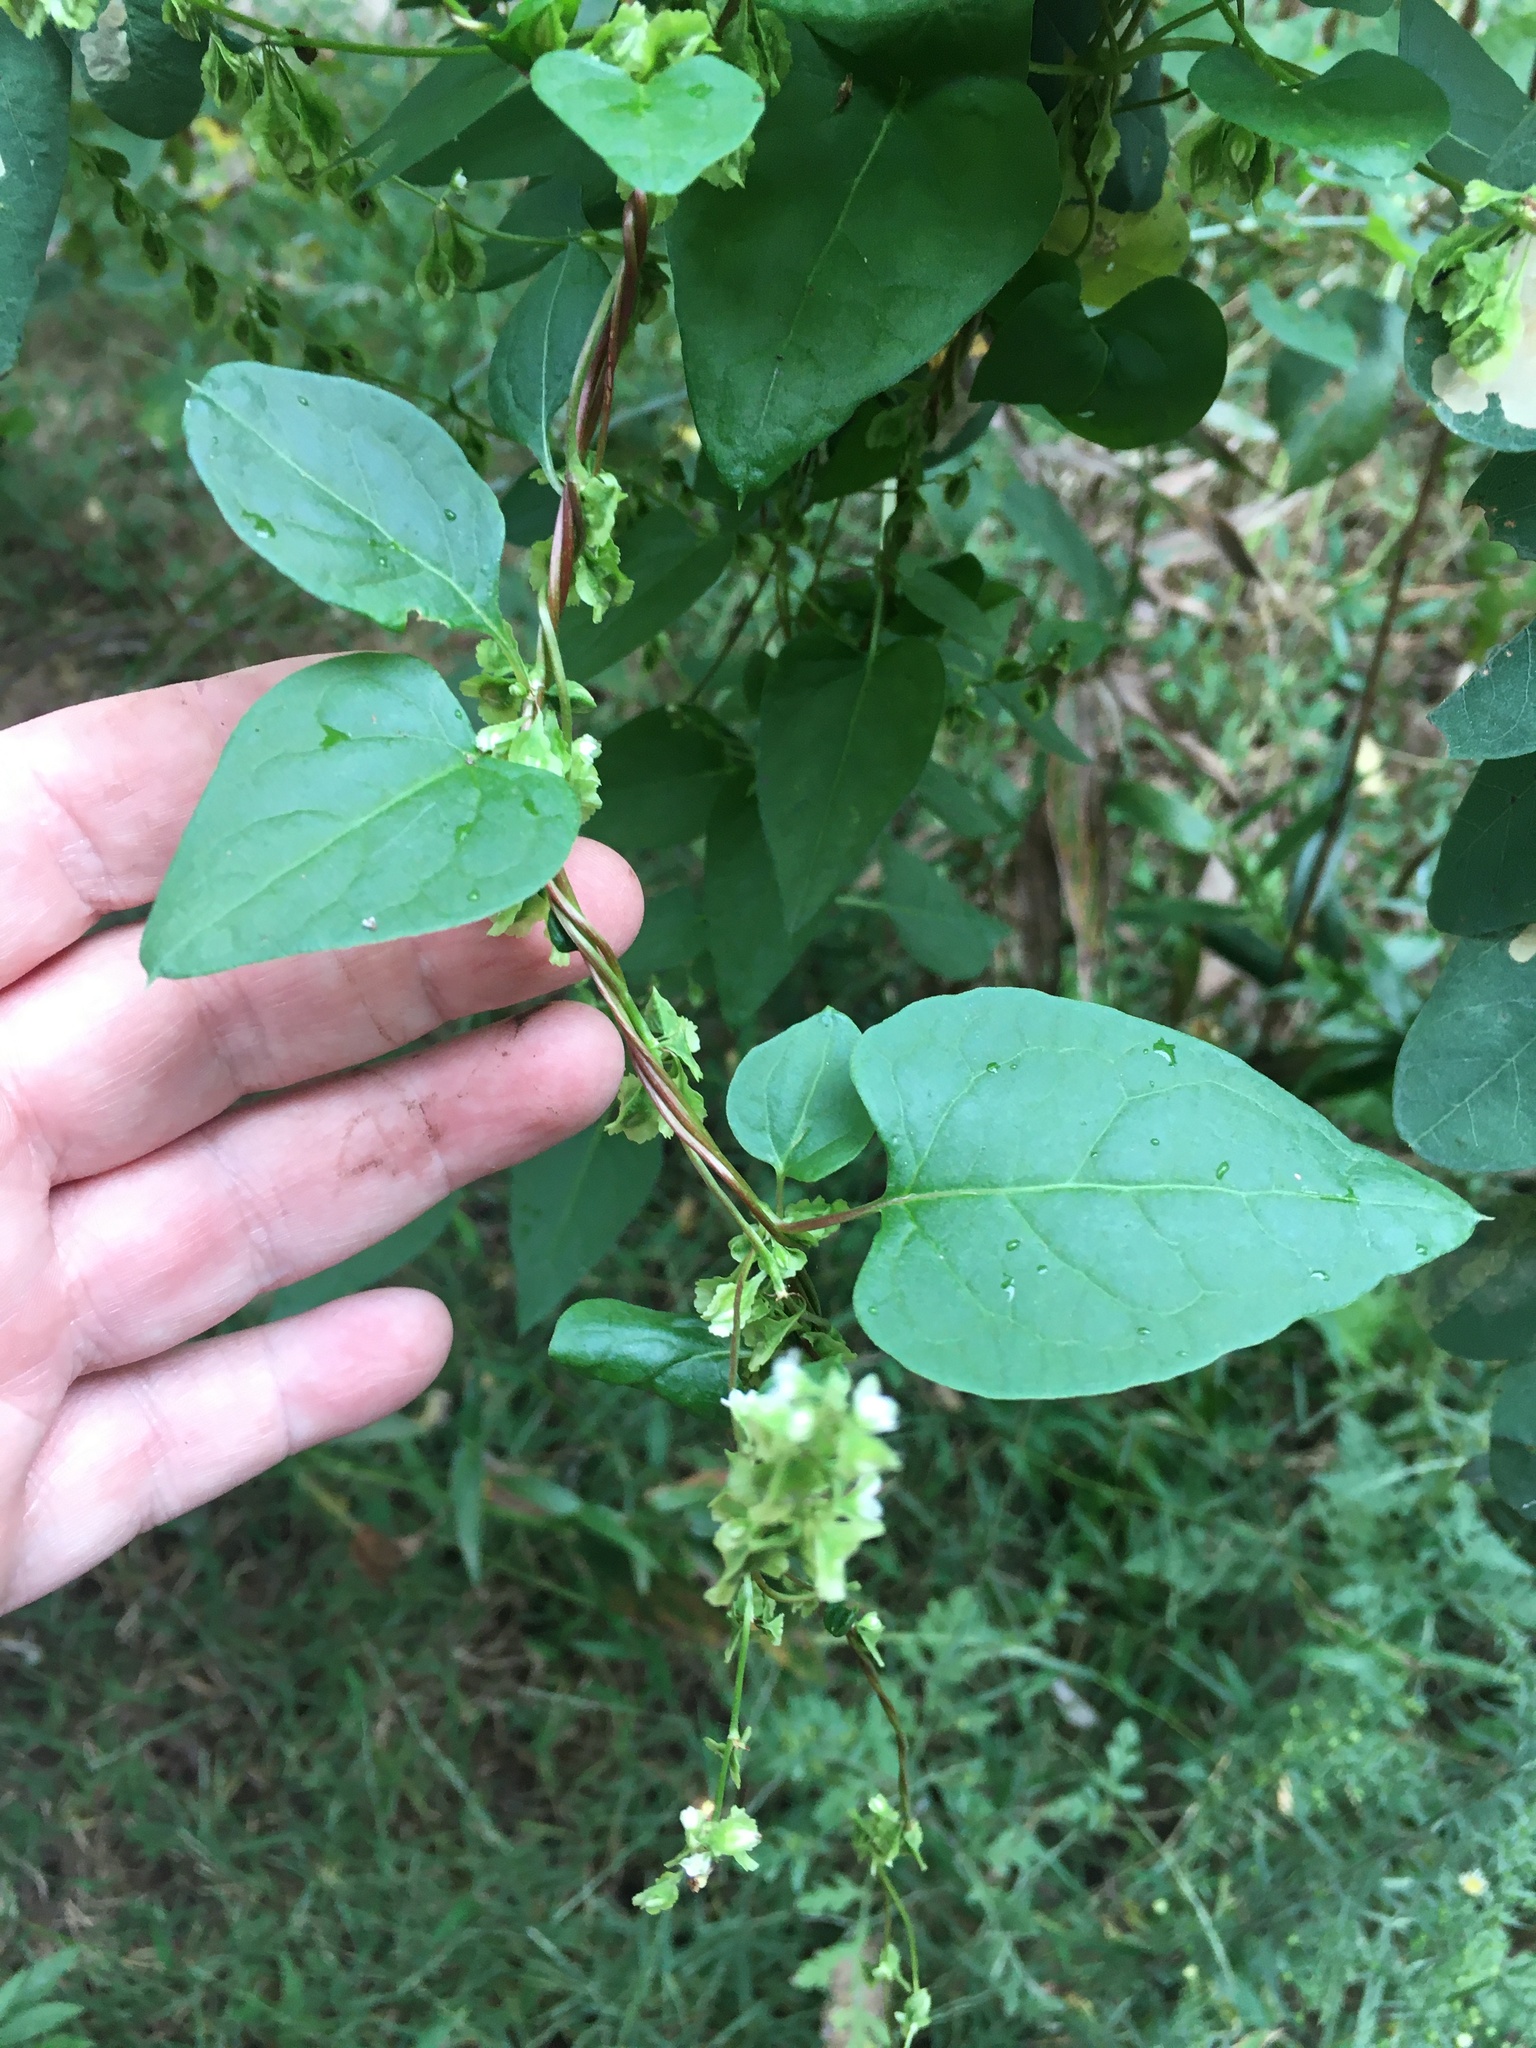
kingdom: Plantae
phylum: Tracheophyta
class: Magnoliopsida
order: Caryophyllales
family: Polygonaceae
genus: Fallopia
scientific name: Fallopia scandens
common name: Climbing false buckwheat
